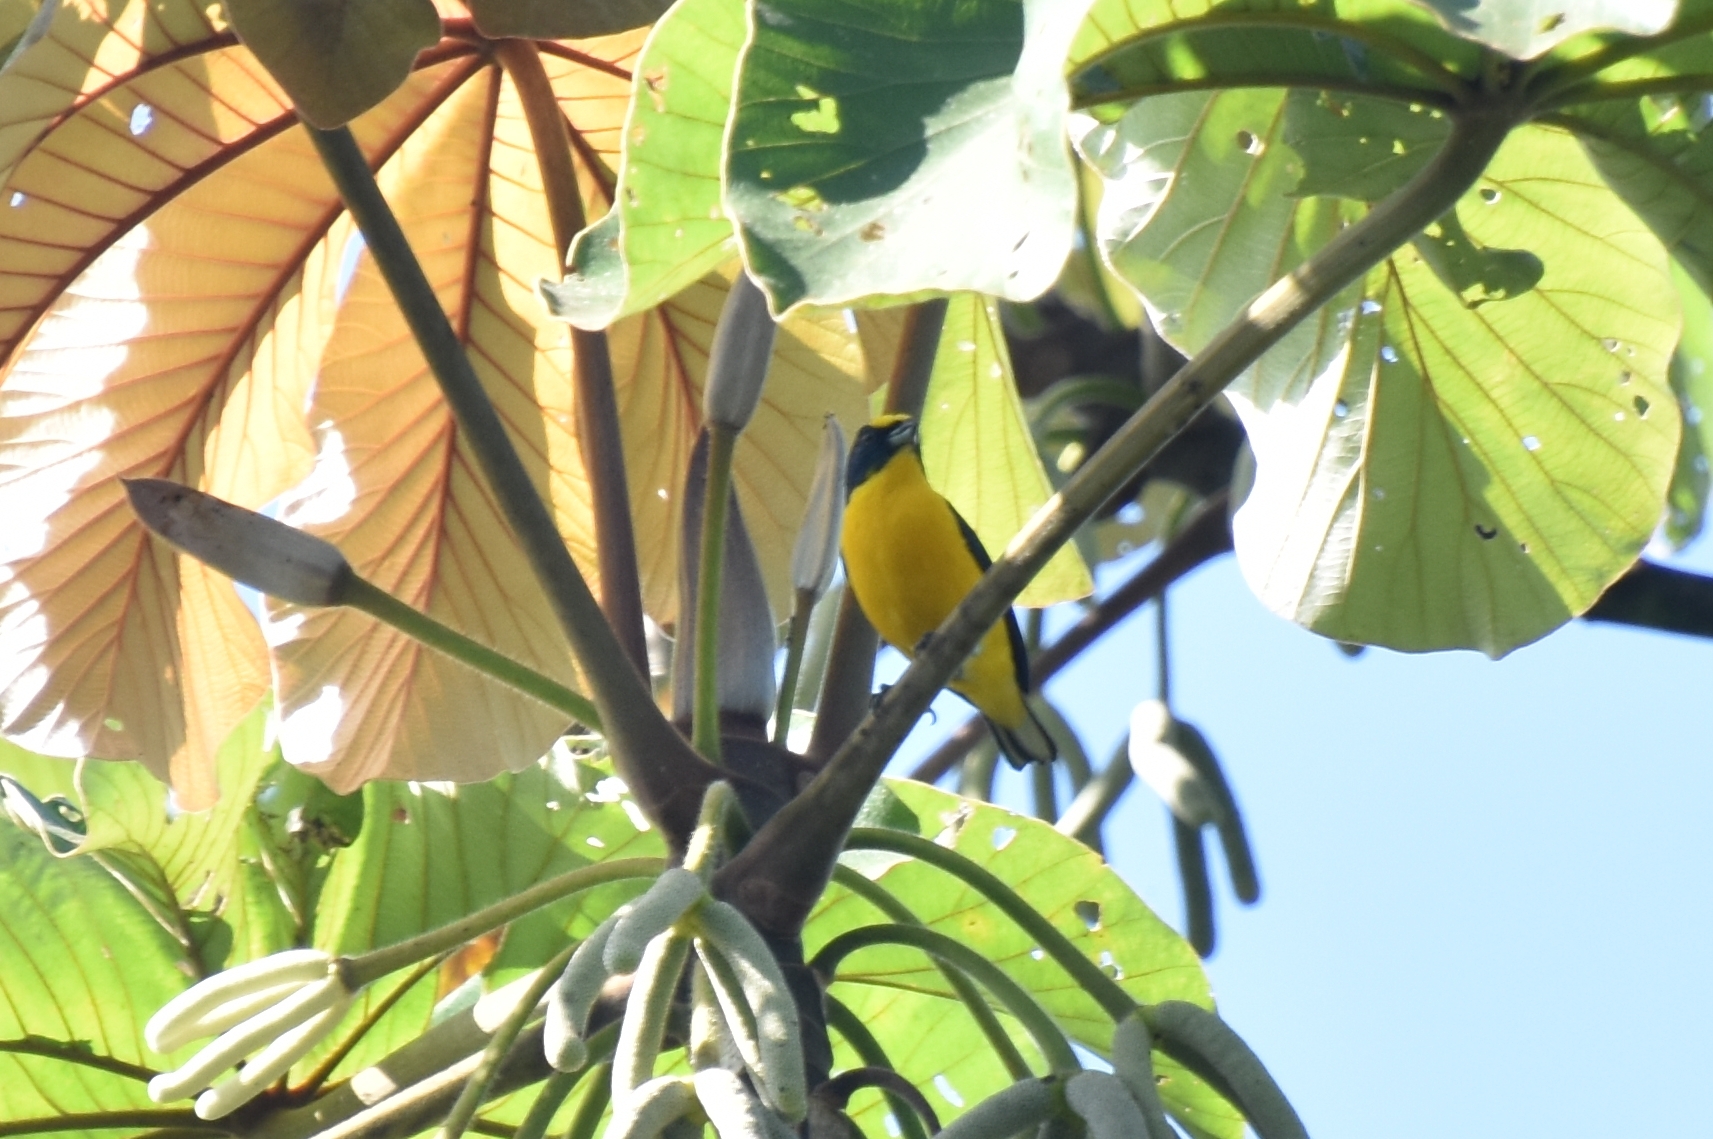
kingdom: Animalia
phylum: Chordata
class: Aves
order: Passeriformes
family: Fringillidae
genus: Euphonia
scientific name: Euphonia hirundinacea
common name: Yellow-throated euphonia
